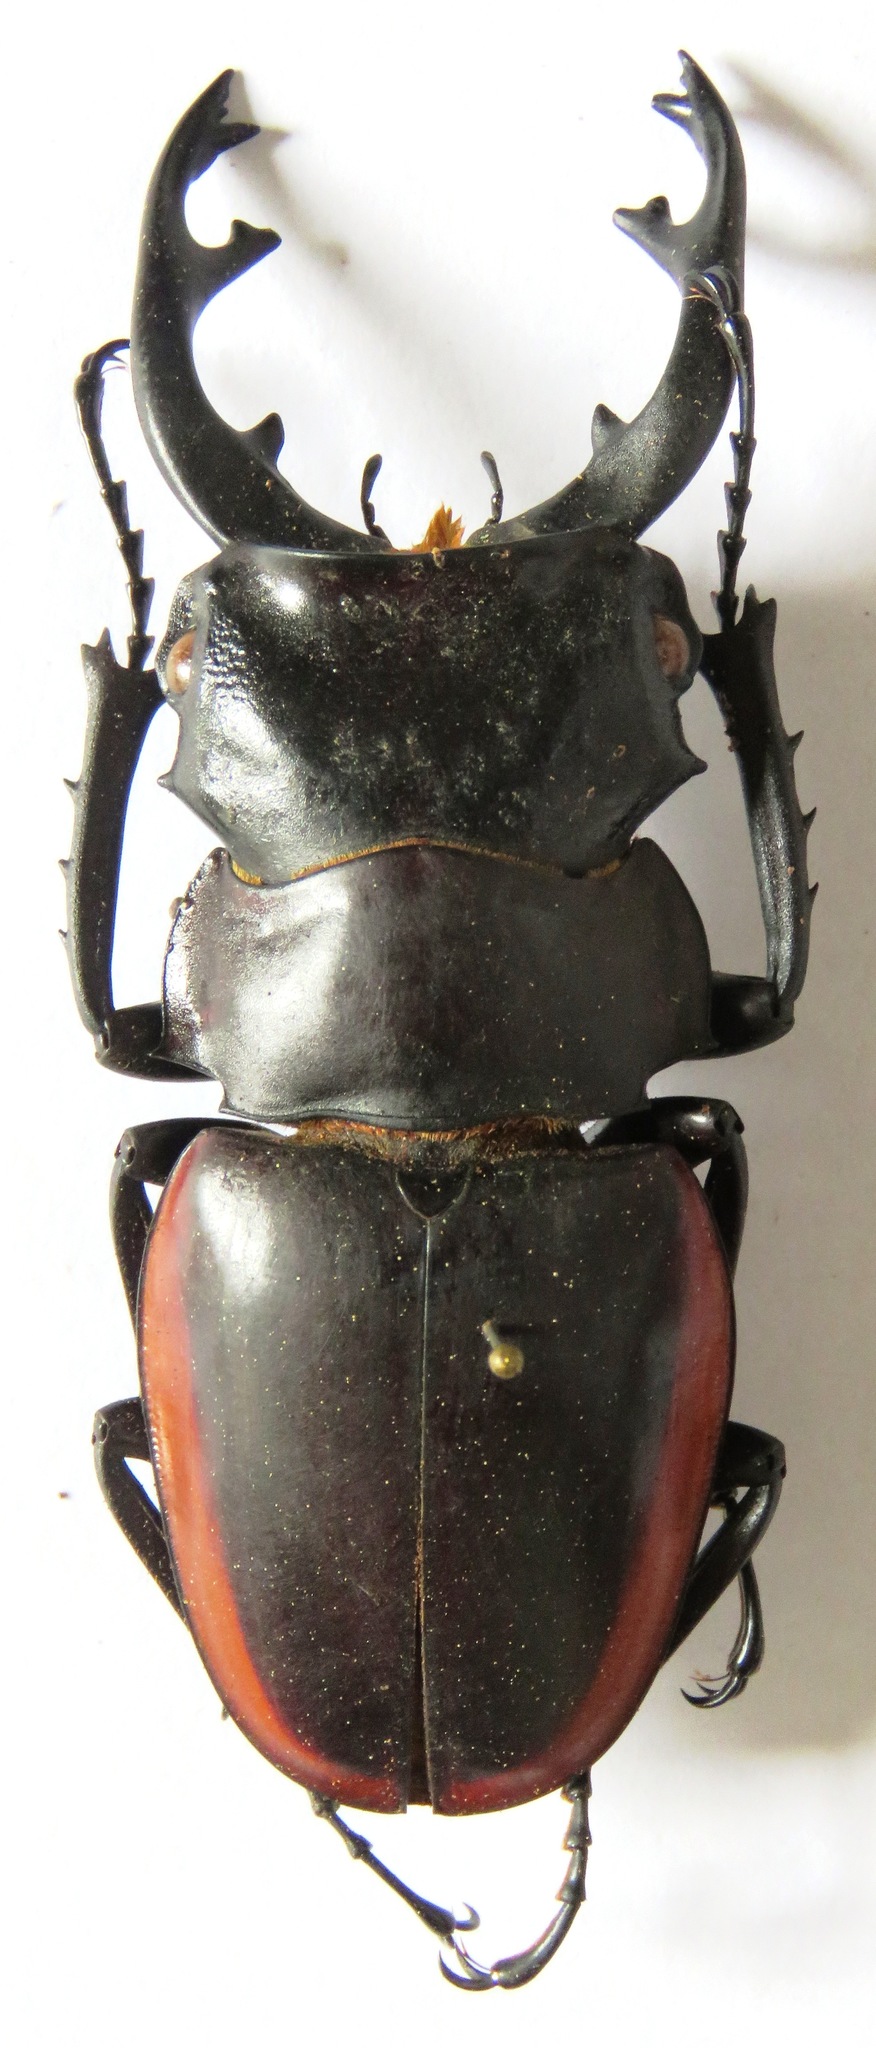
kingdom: Animalia
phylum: Arthropoda
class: Insecta
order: Coleoptera
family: Lucanidae
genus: Odontolabis
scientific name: Odontolabis cuvera
